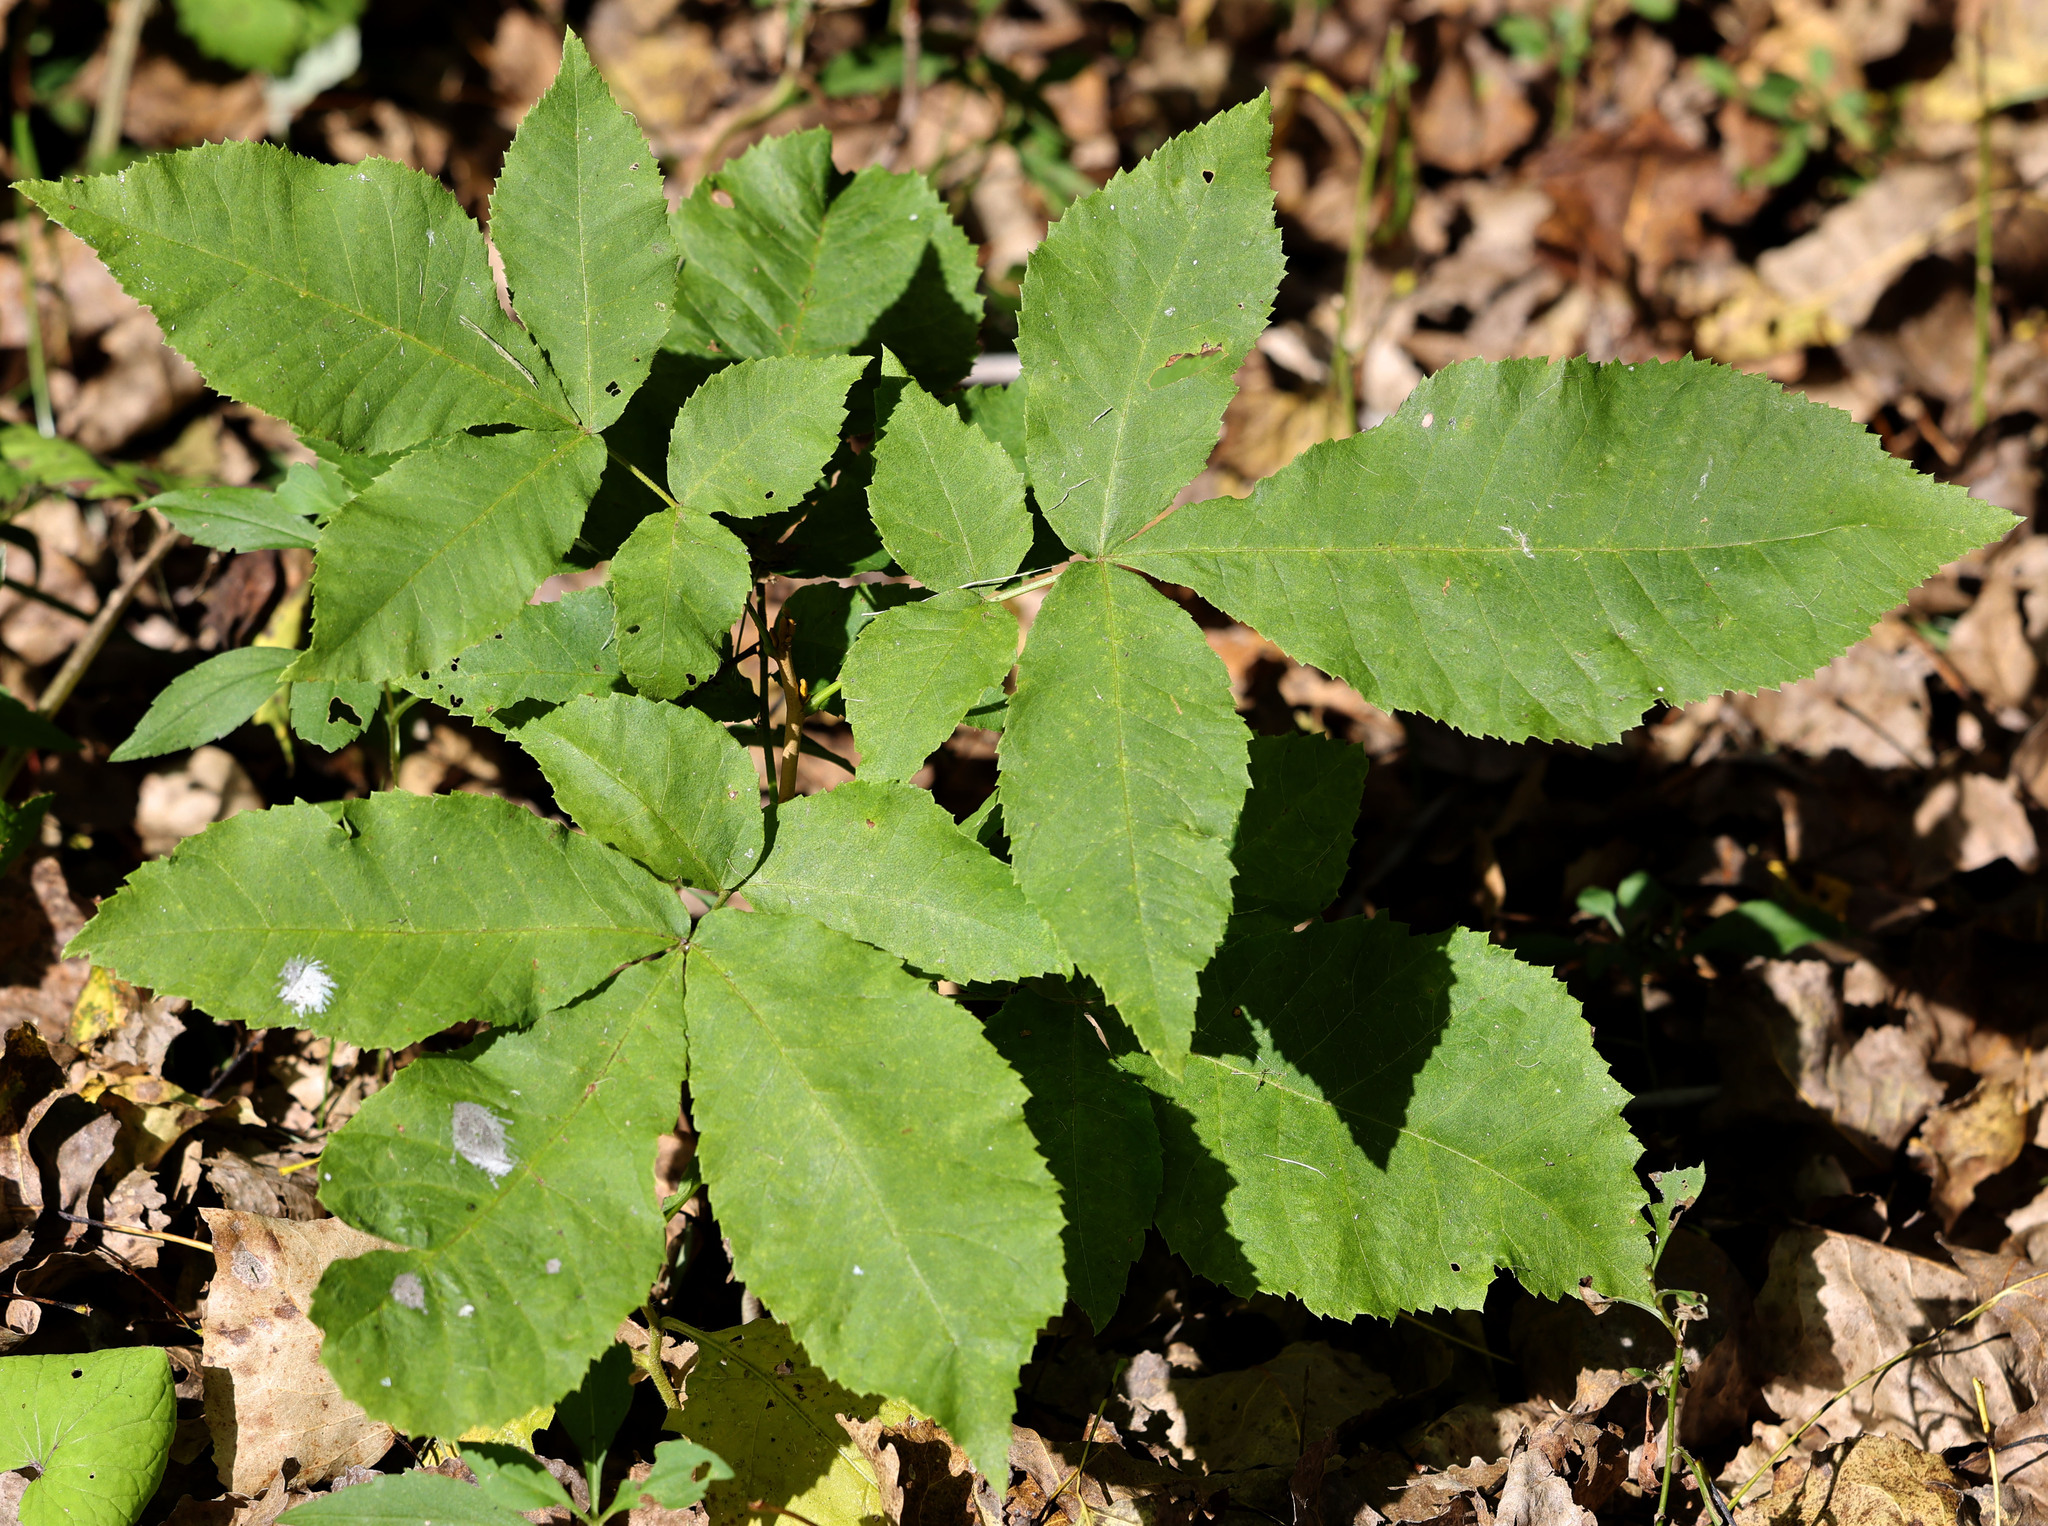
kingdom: Plantae
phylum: Tracheophyta
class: Magnoliopsida
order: Fagales
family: Juglandaceae
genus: Carya
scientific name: Carya cordiformis
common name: Bitternut hickory
